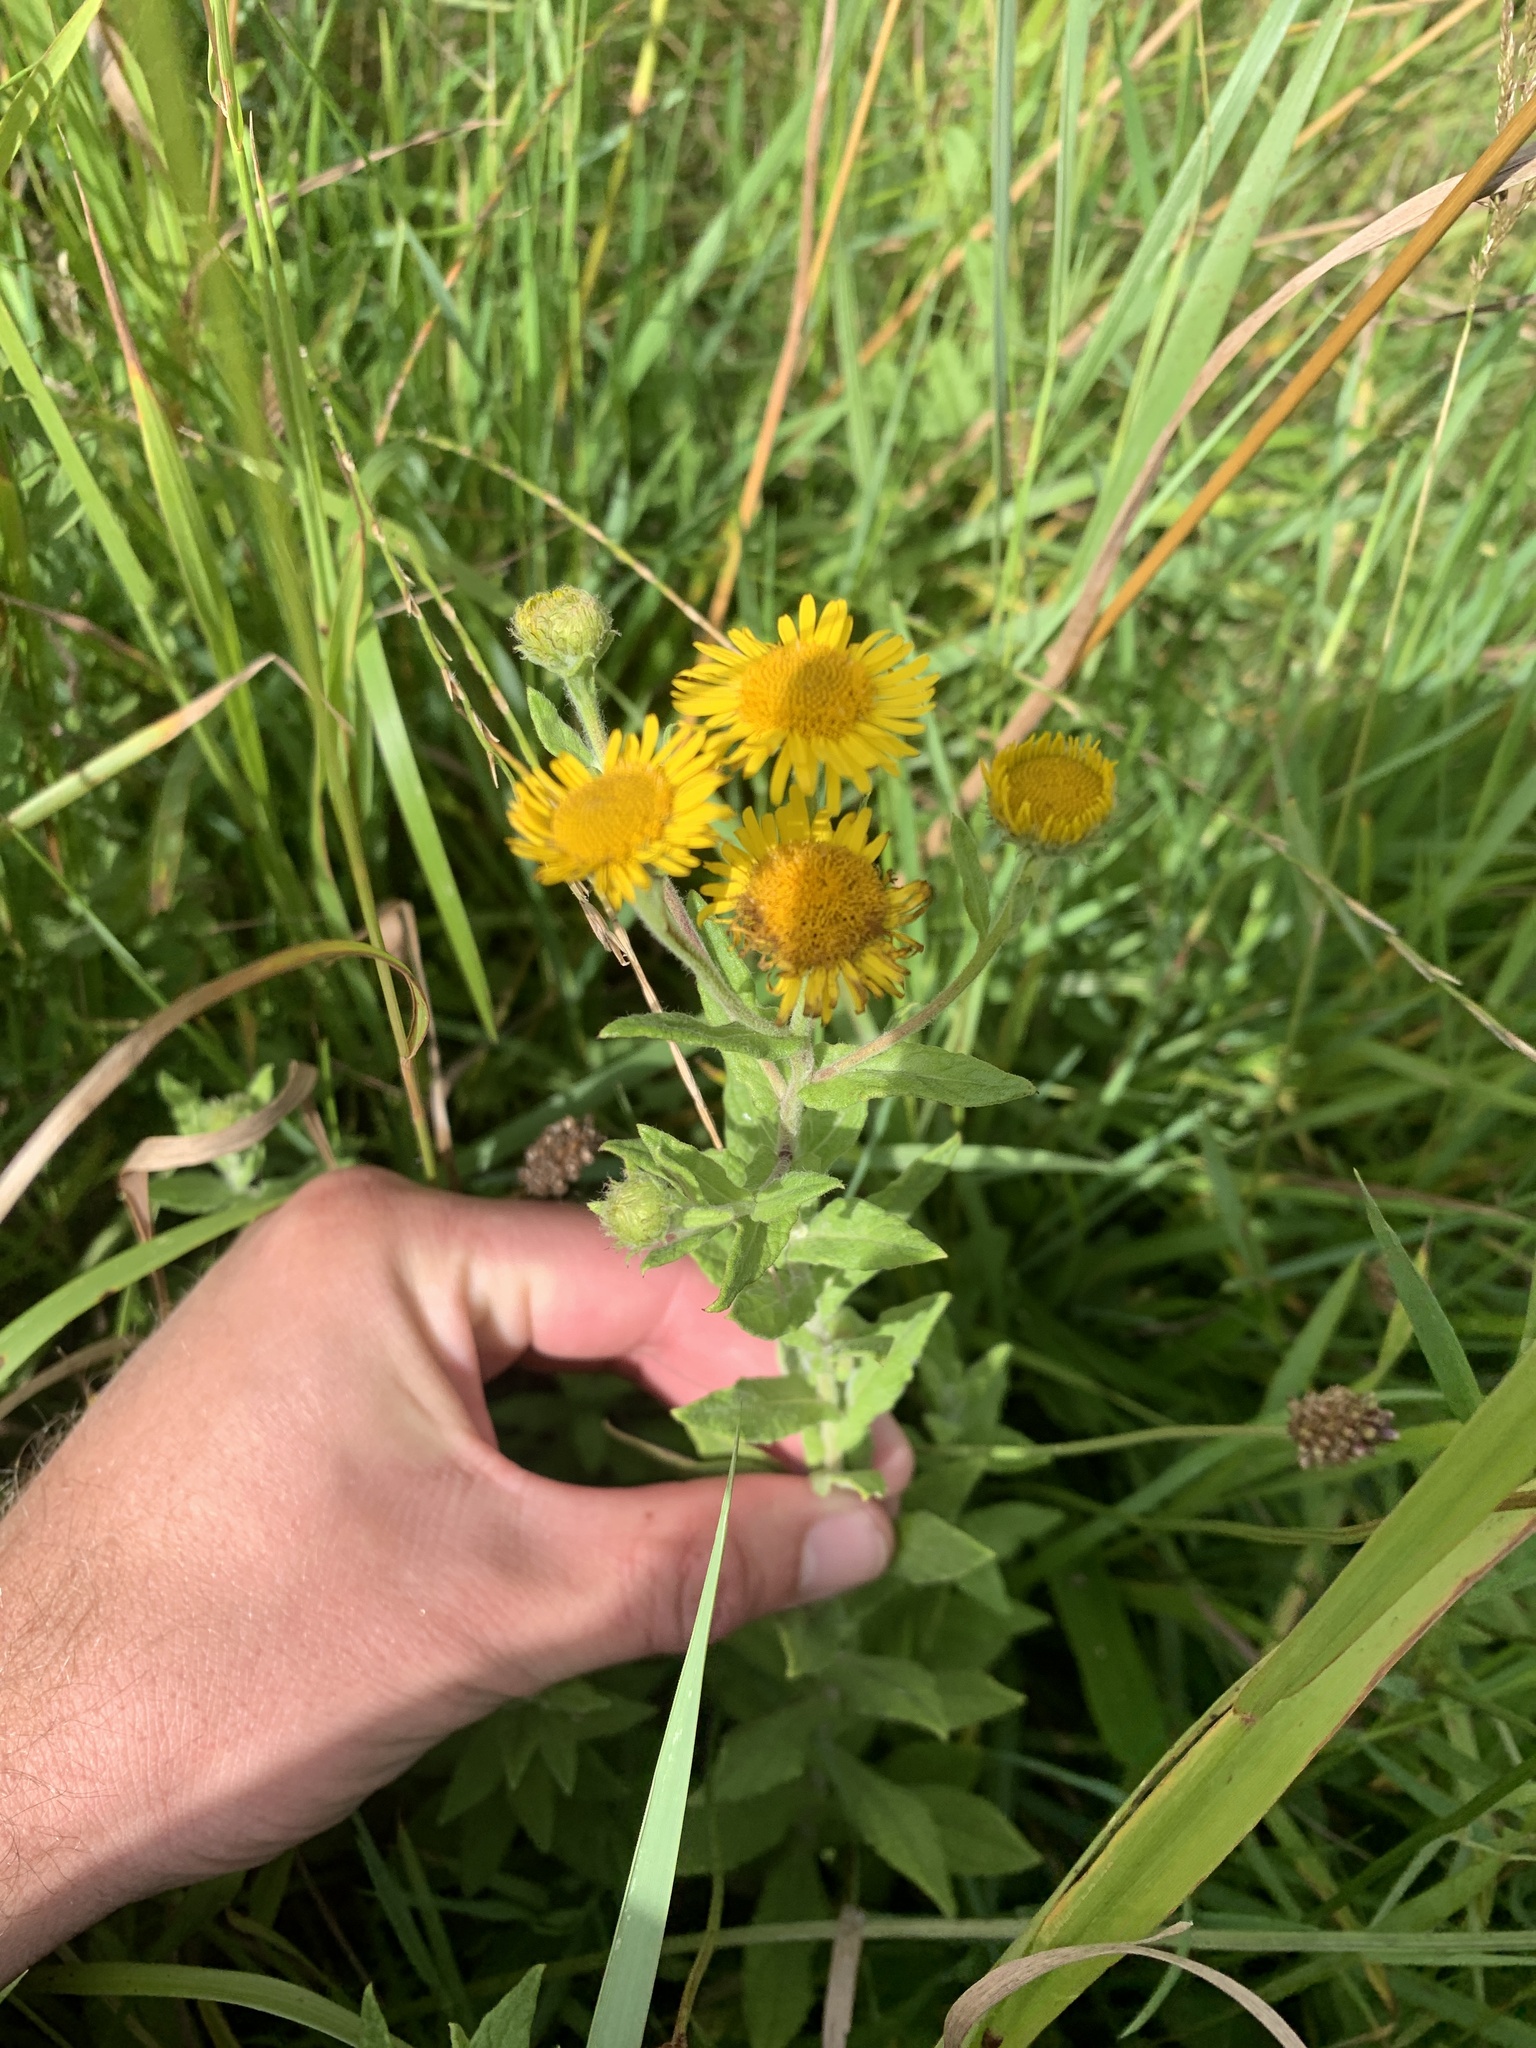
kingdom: Plantae
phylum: Tracheophyta
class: Magnoliopsida
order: Asterales
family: Asteraceae
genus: Pulicaria
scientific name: Pulicaria dysenterica
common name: Common fleabane
